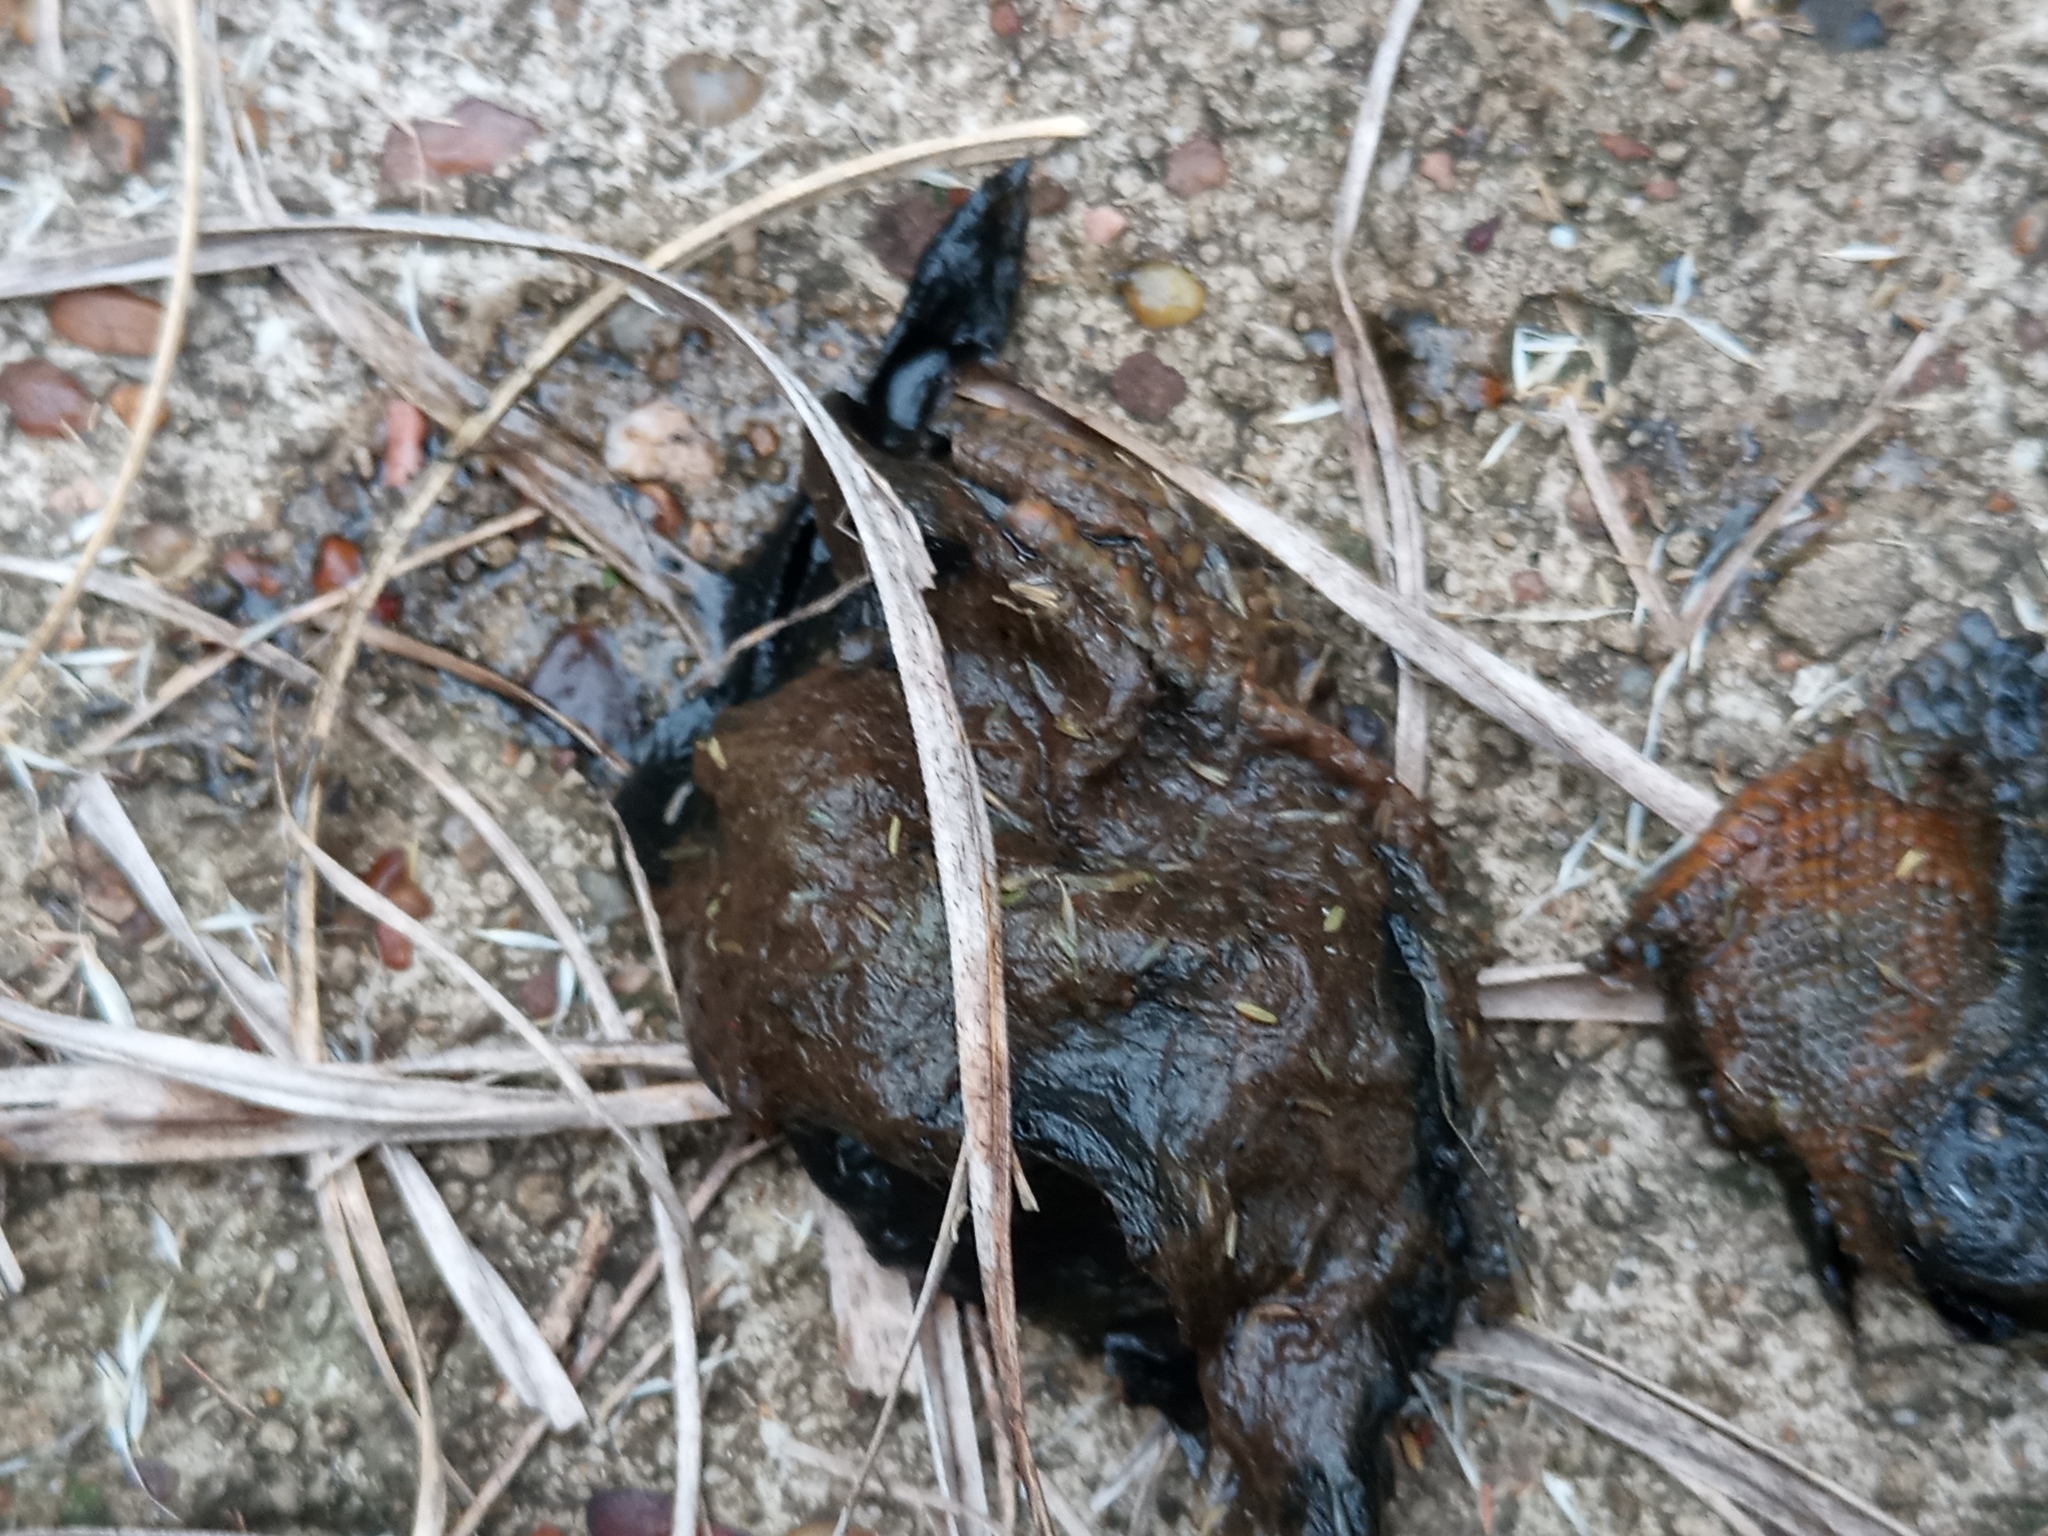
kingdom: Animalia
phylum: Chordata
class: Squamata
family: Teiidae
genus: Salvator
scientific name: Salvator merianae
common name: Argentine black and white tegu
